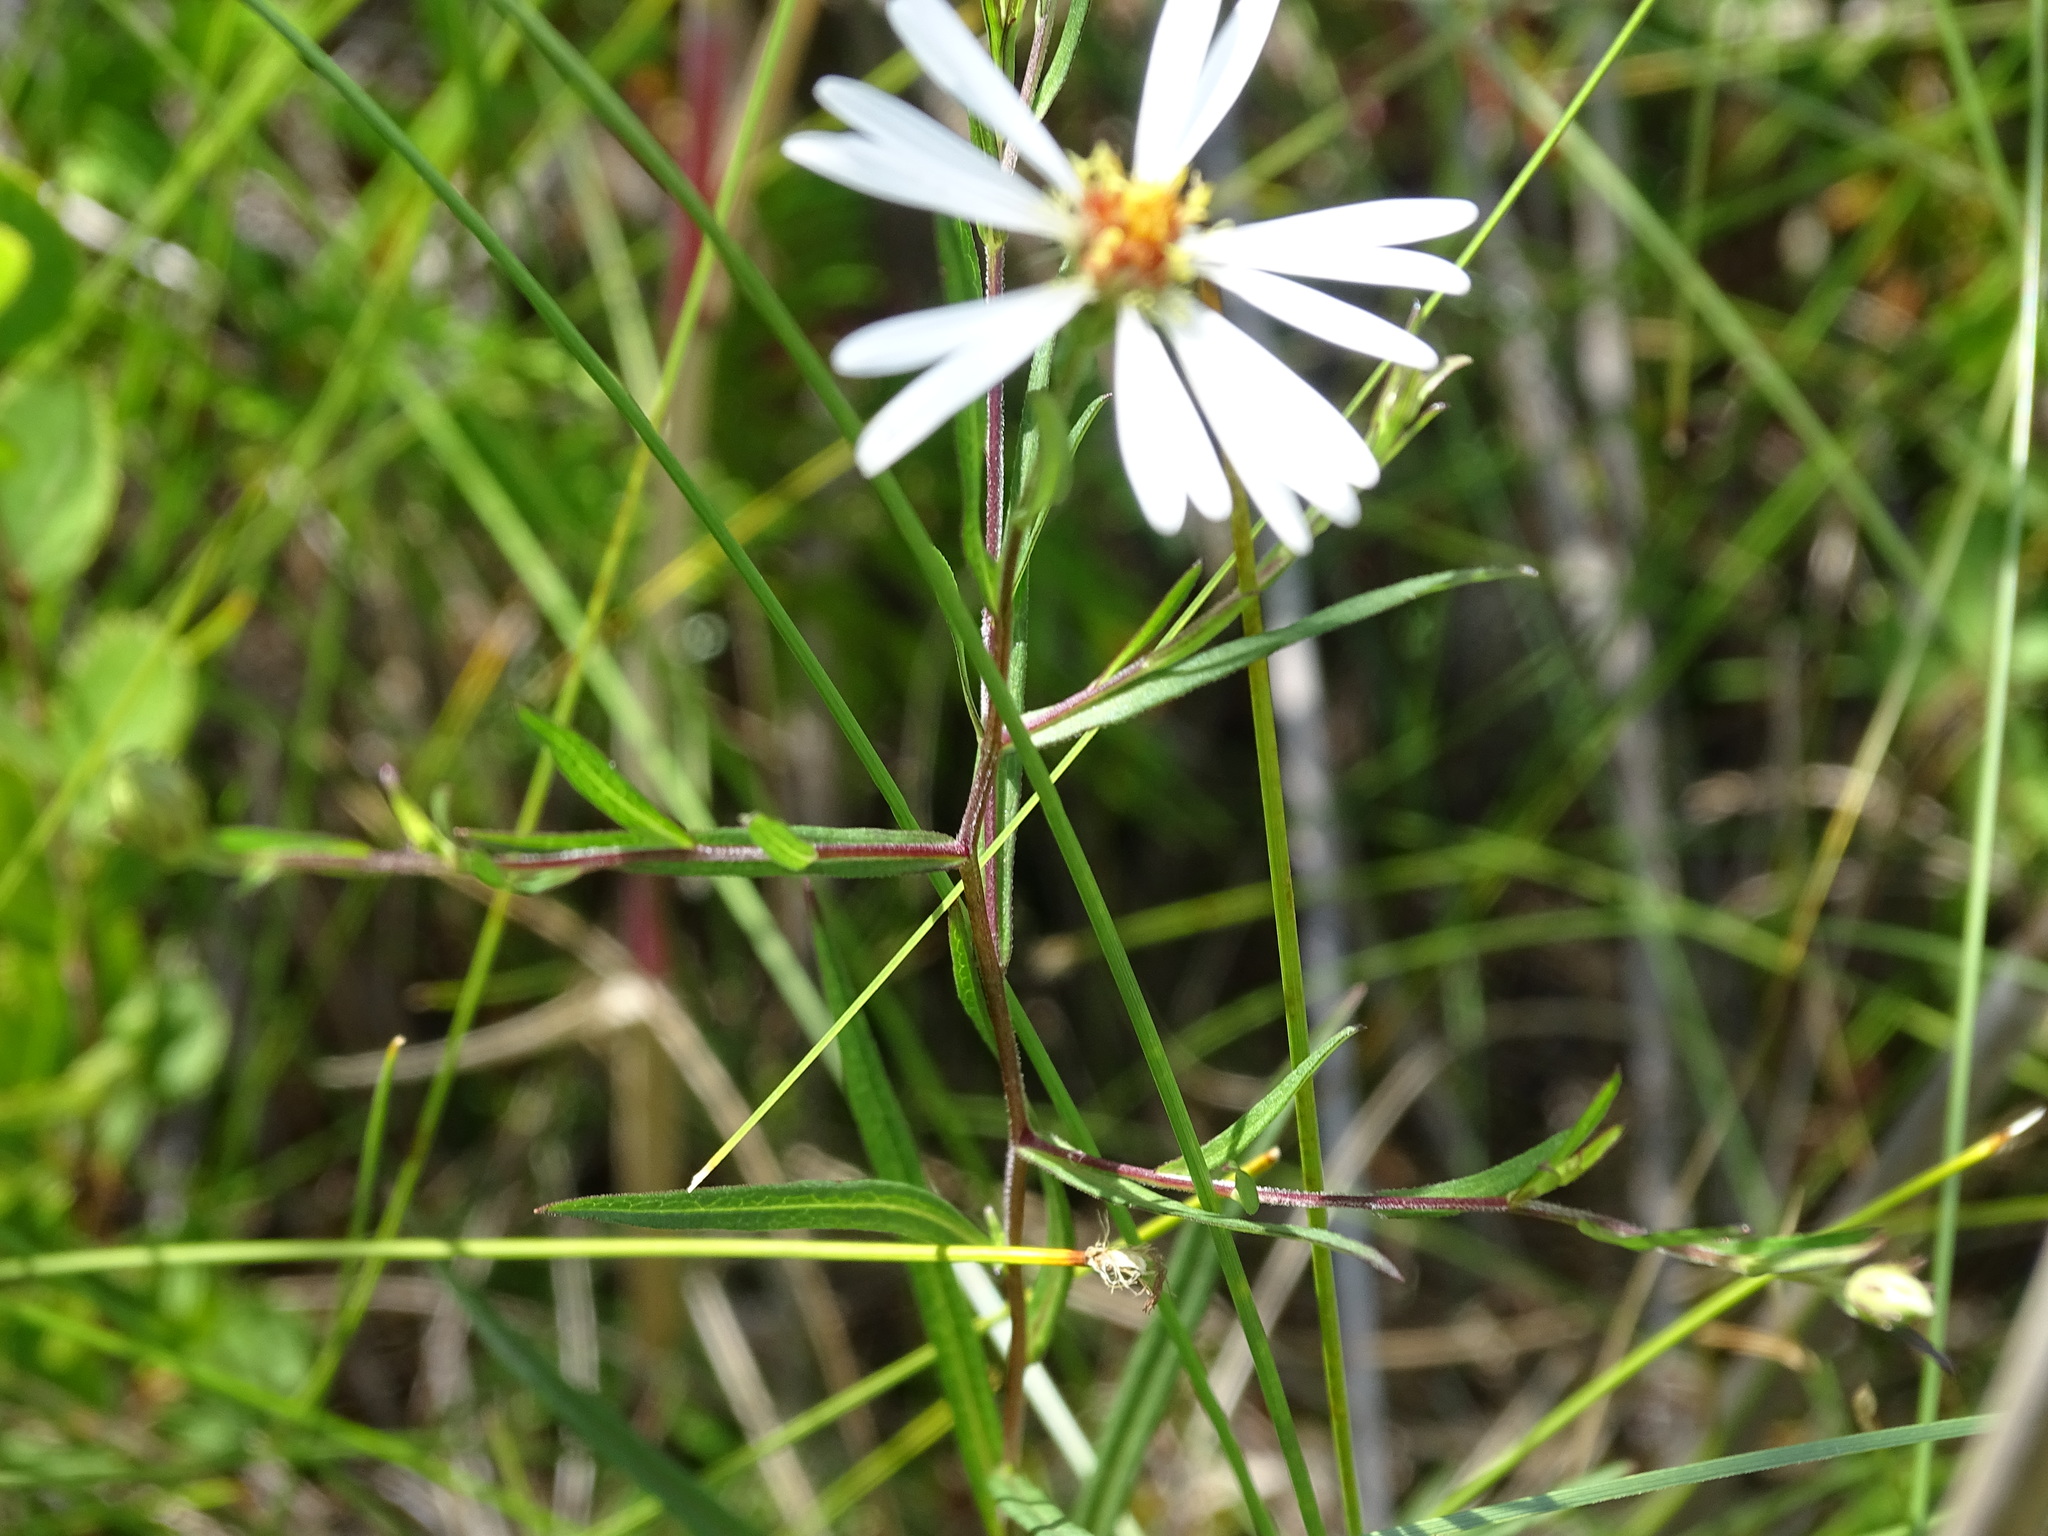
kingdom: Plantae
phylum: Tracheophyta
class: Magnoliopsida
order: Asterales
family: Asteraceae
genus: Symphyotrichum
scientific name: Symphyotrichum boreale
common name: Northern bog aster
